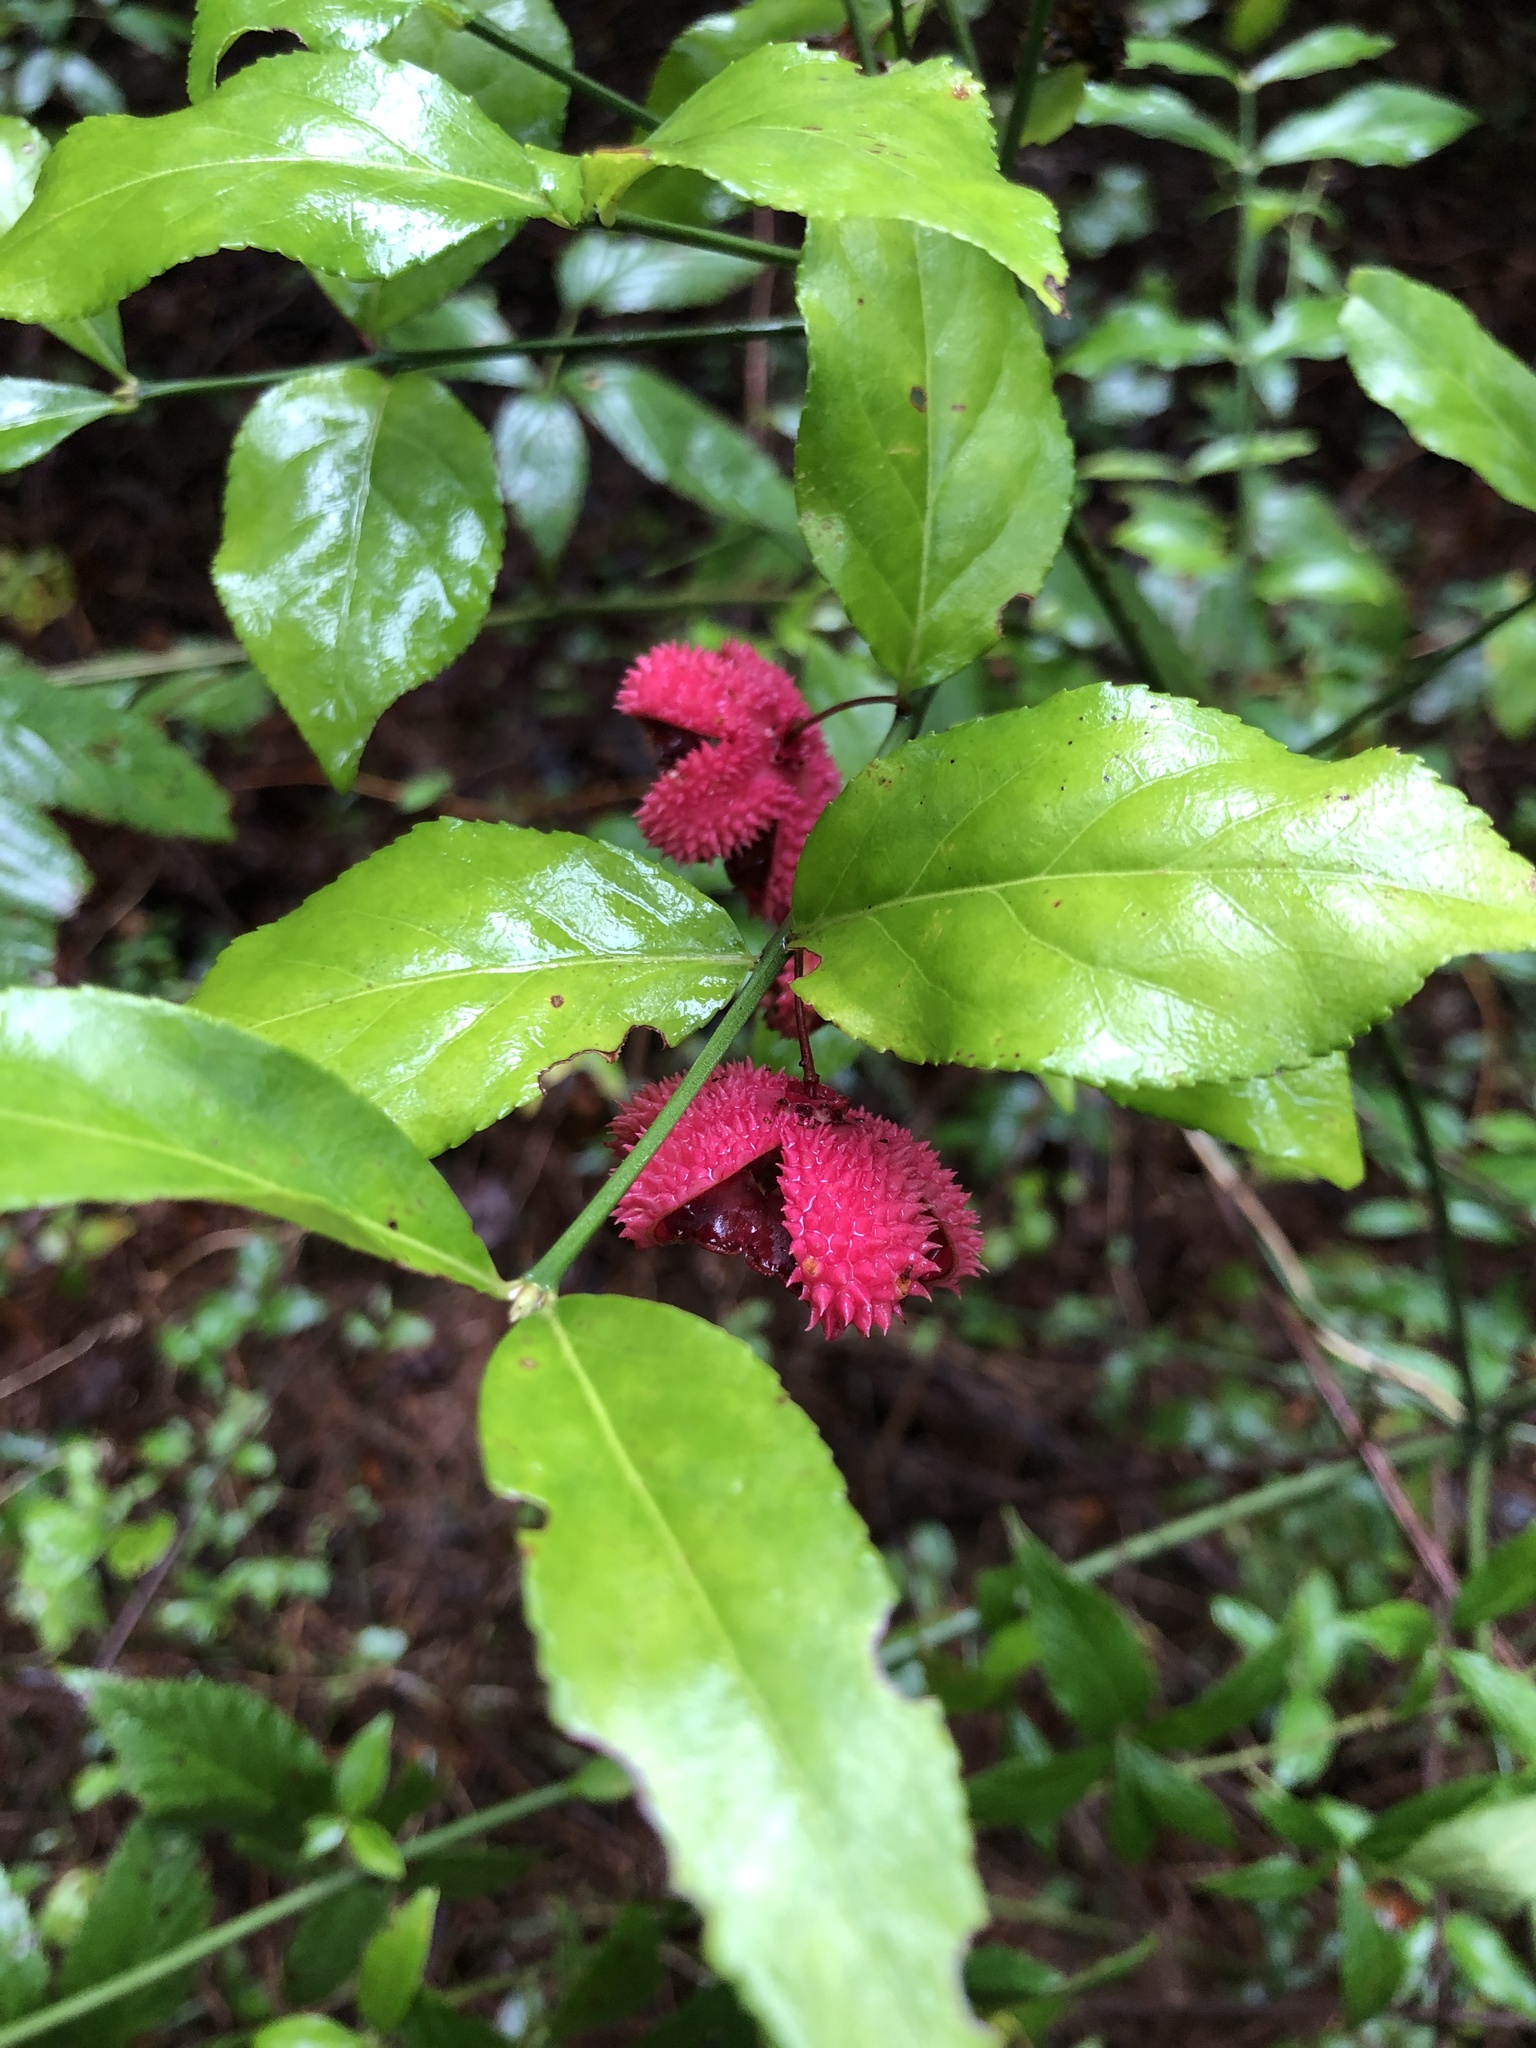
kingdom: Plantae
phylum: Tracheophyta
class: Magnoliopsida
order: Celastrales
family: Celastraceae
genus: Euonymus
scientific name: Euonymus americanus
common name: Bursting-heart
